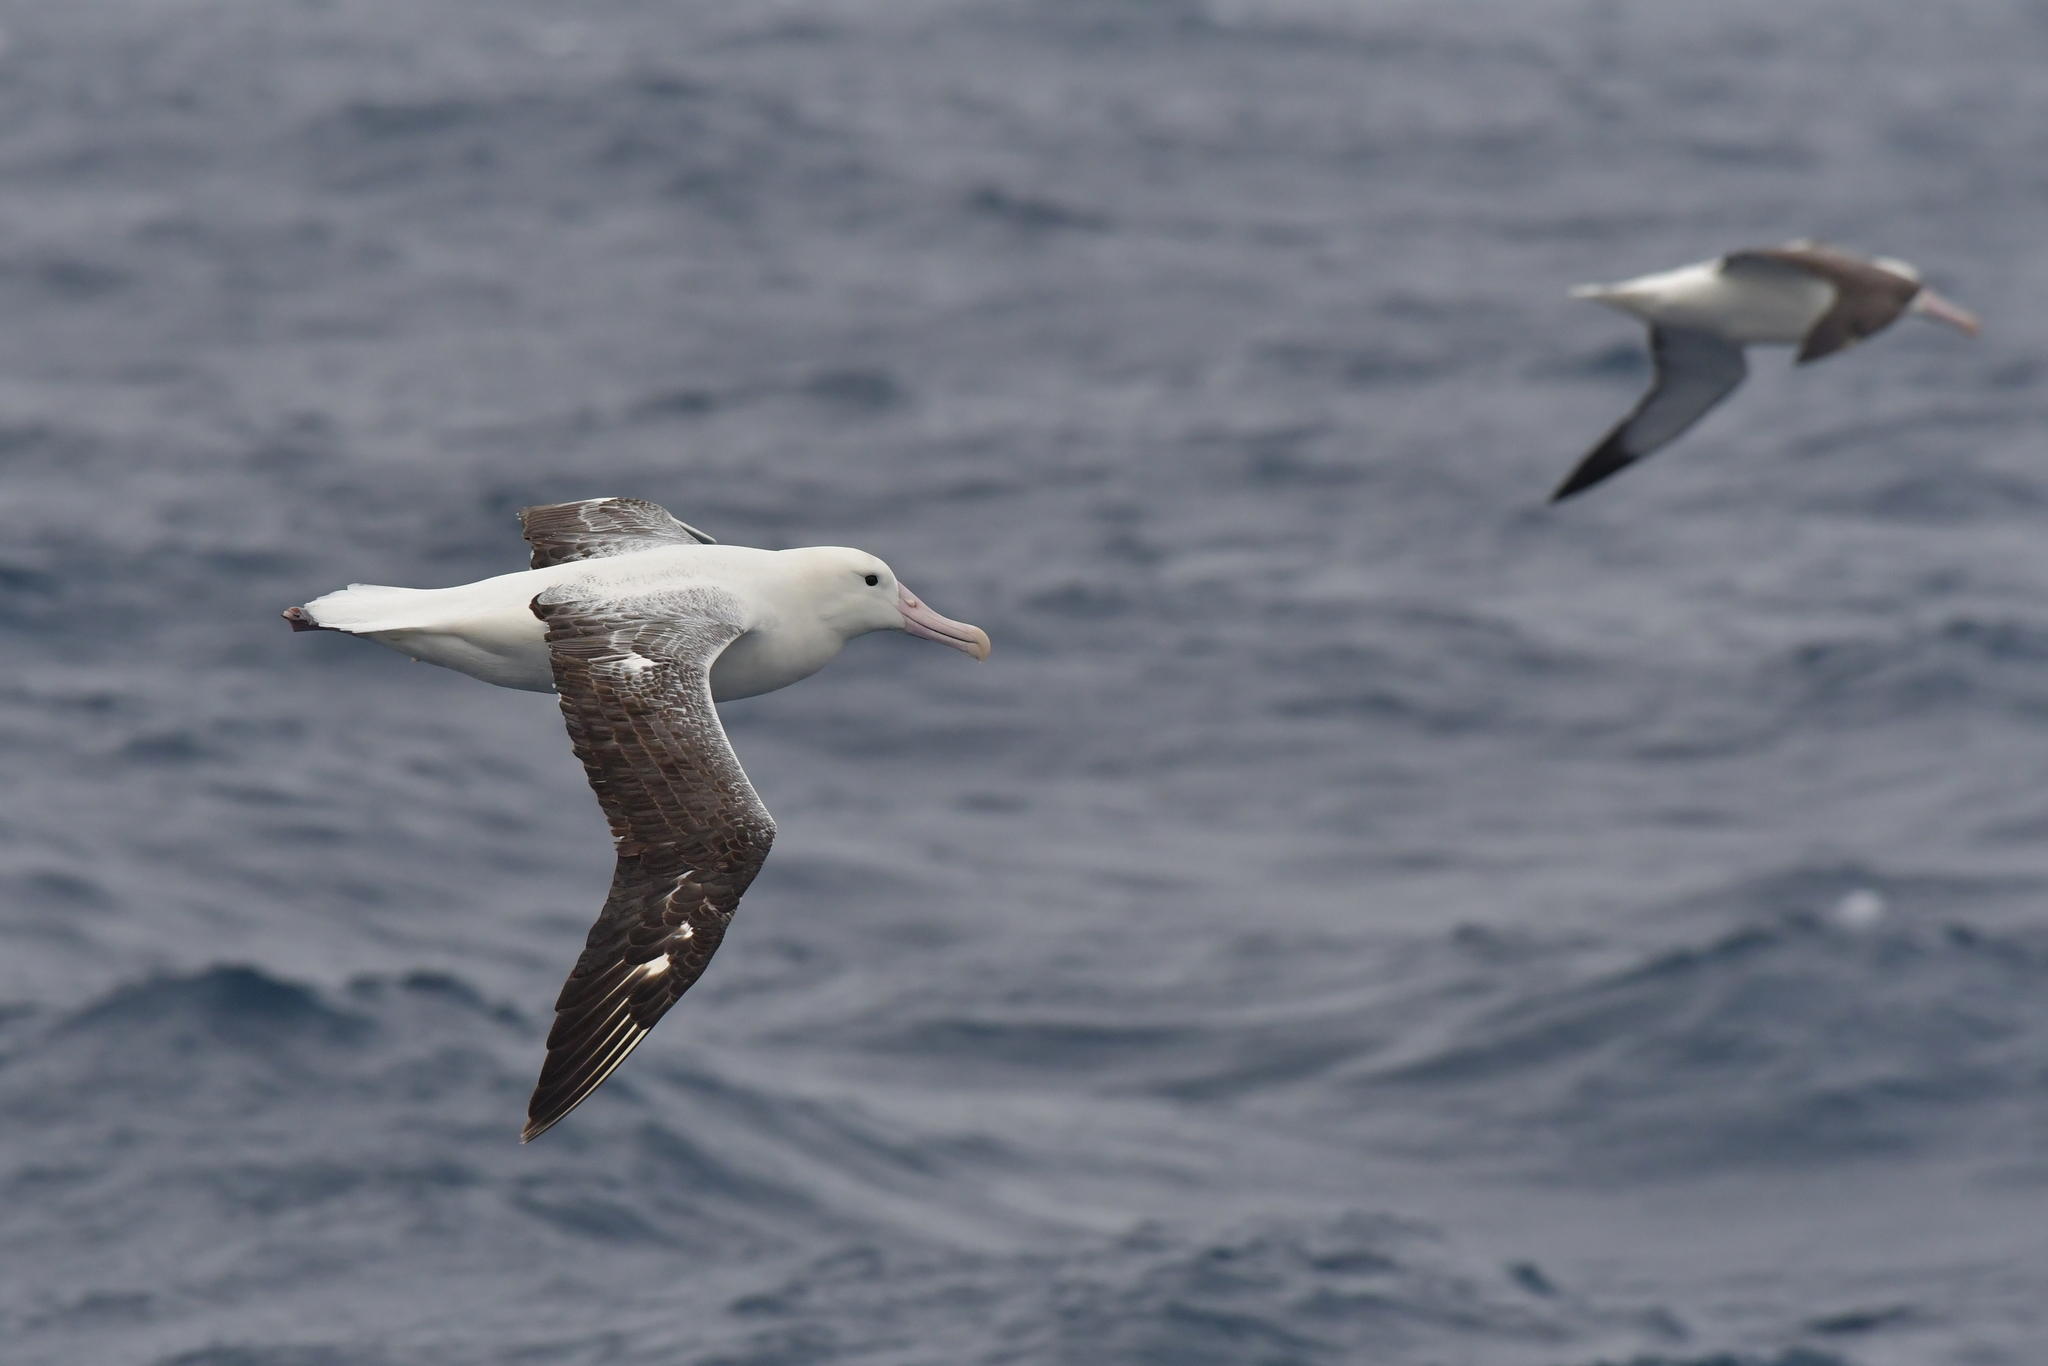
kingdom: Animalia
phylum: Chordata
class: Aves
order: Procellariiformes
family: Diomedeidae
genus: Diomedea
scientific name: Diomedea epomophora
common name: Southern royal albatross
